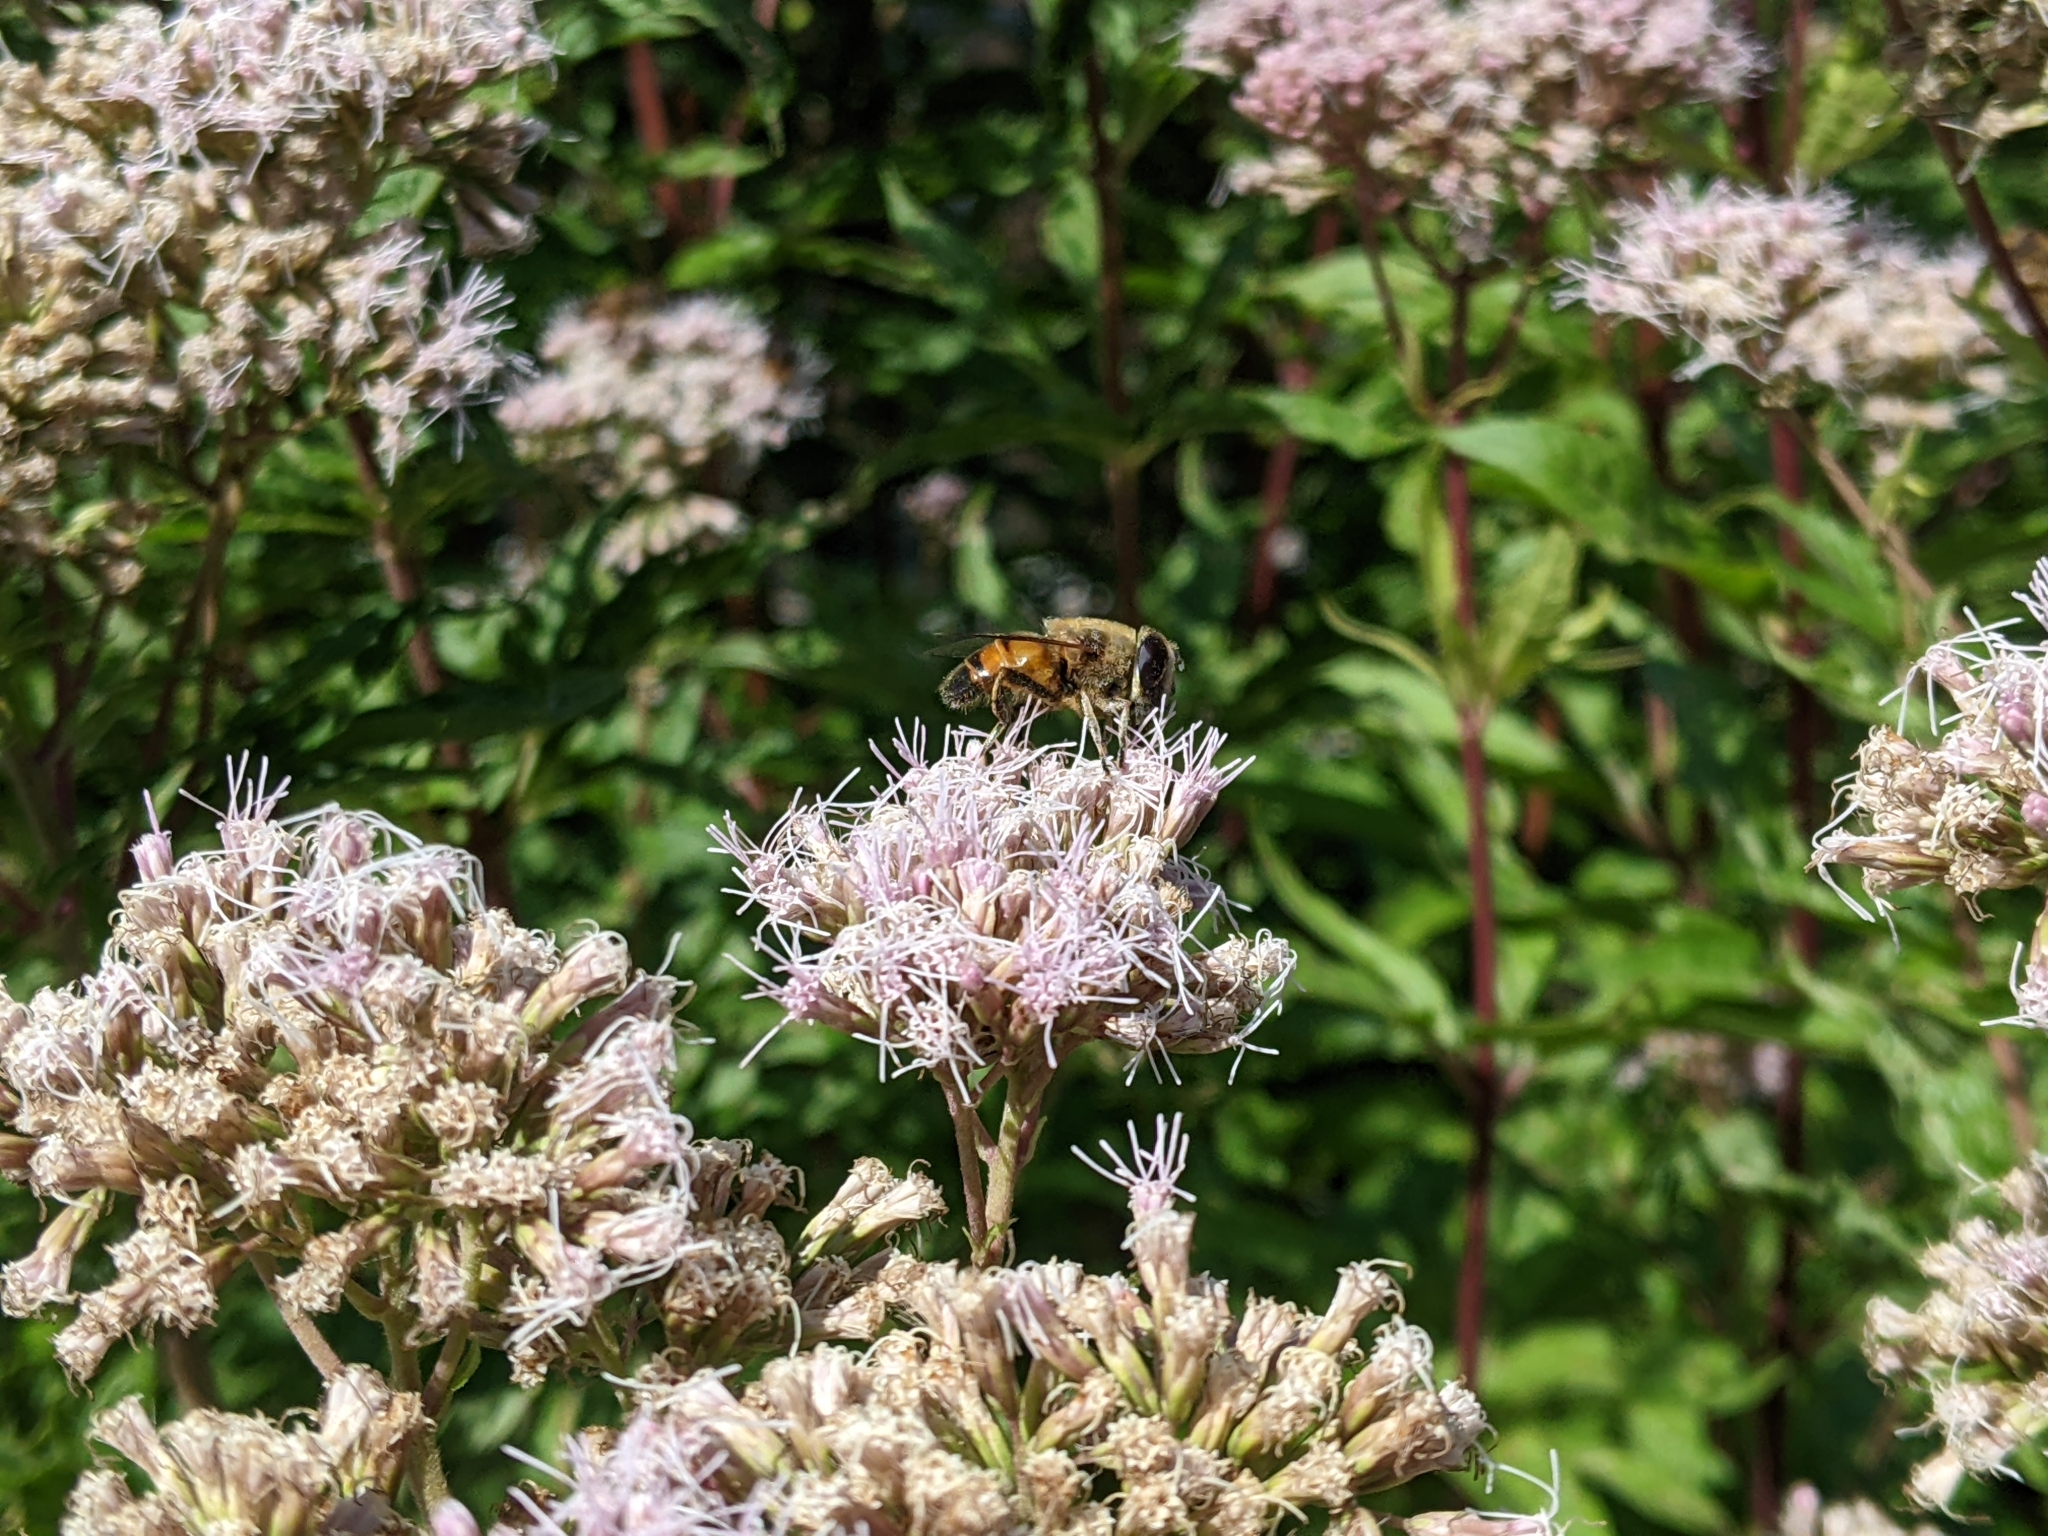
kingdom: Animalia
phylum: Arthropoda
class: Insecta
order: Diptera
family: Syrphidae
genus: Eristalis
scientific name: Eristalis tenax
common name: Drone fly
